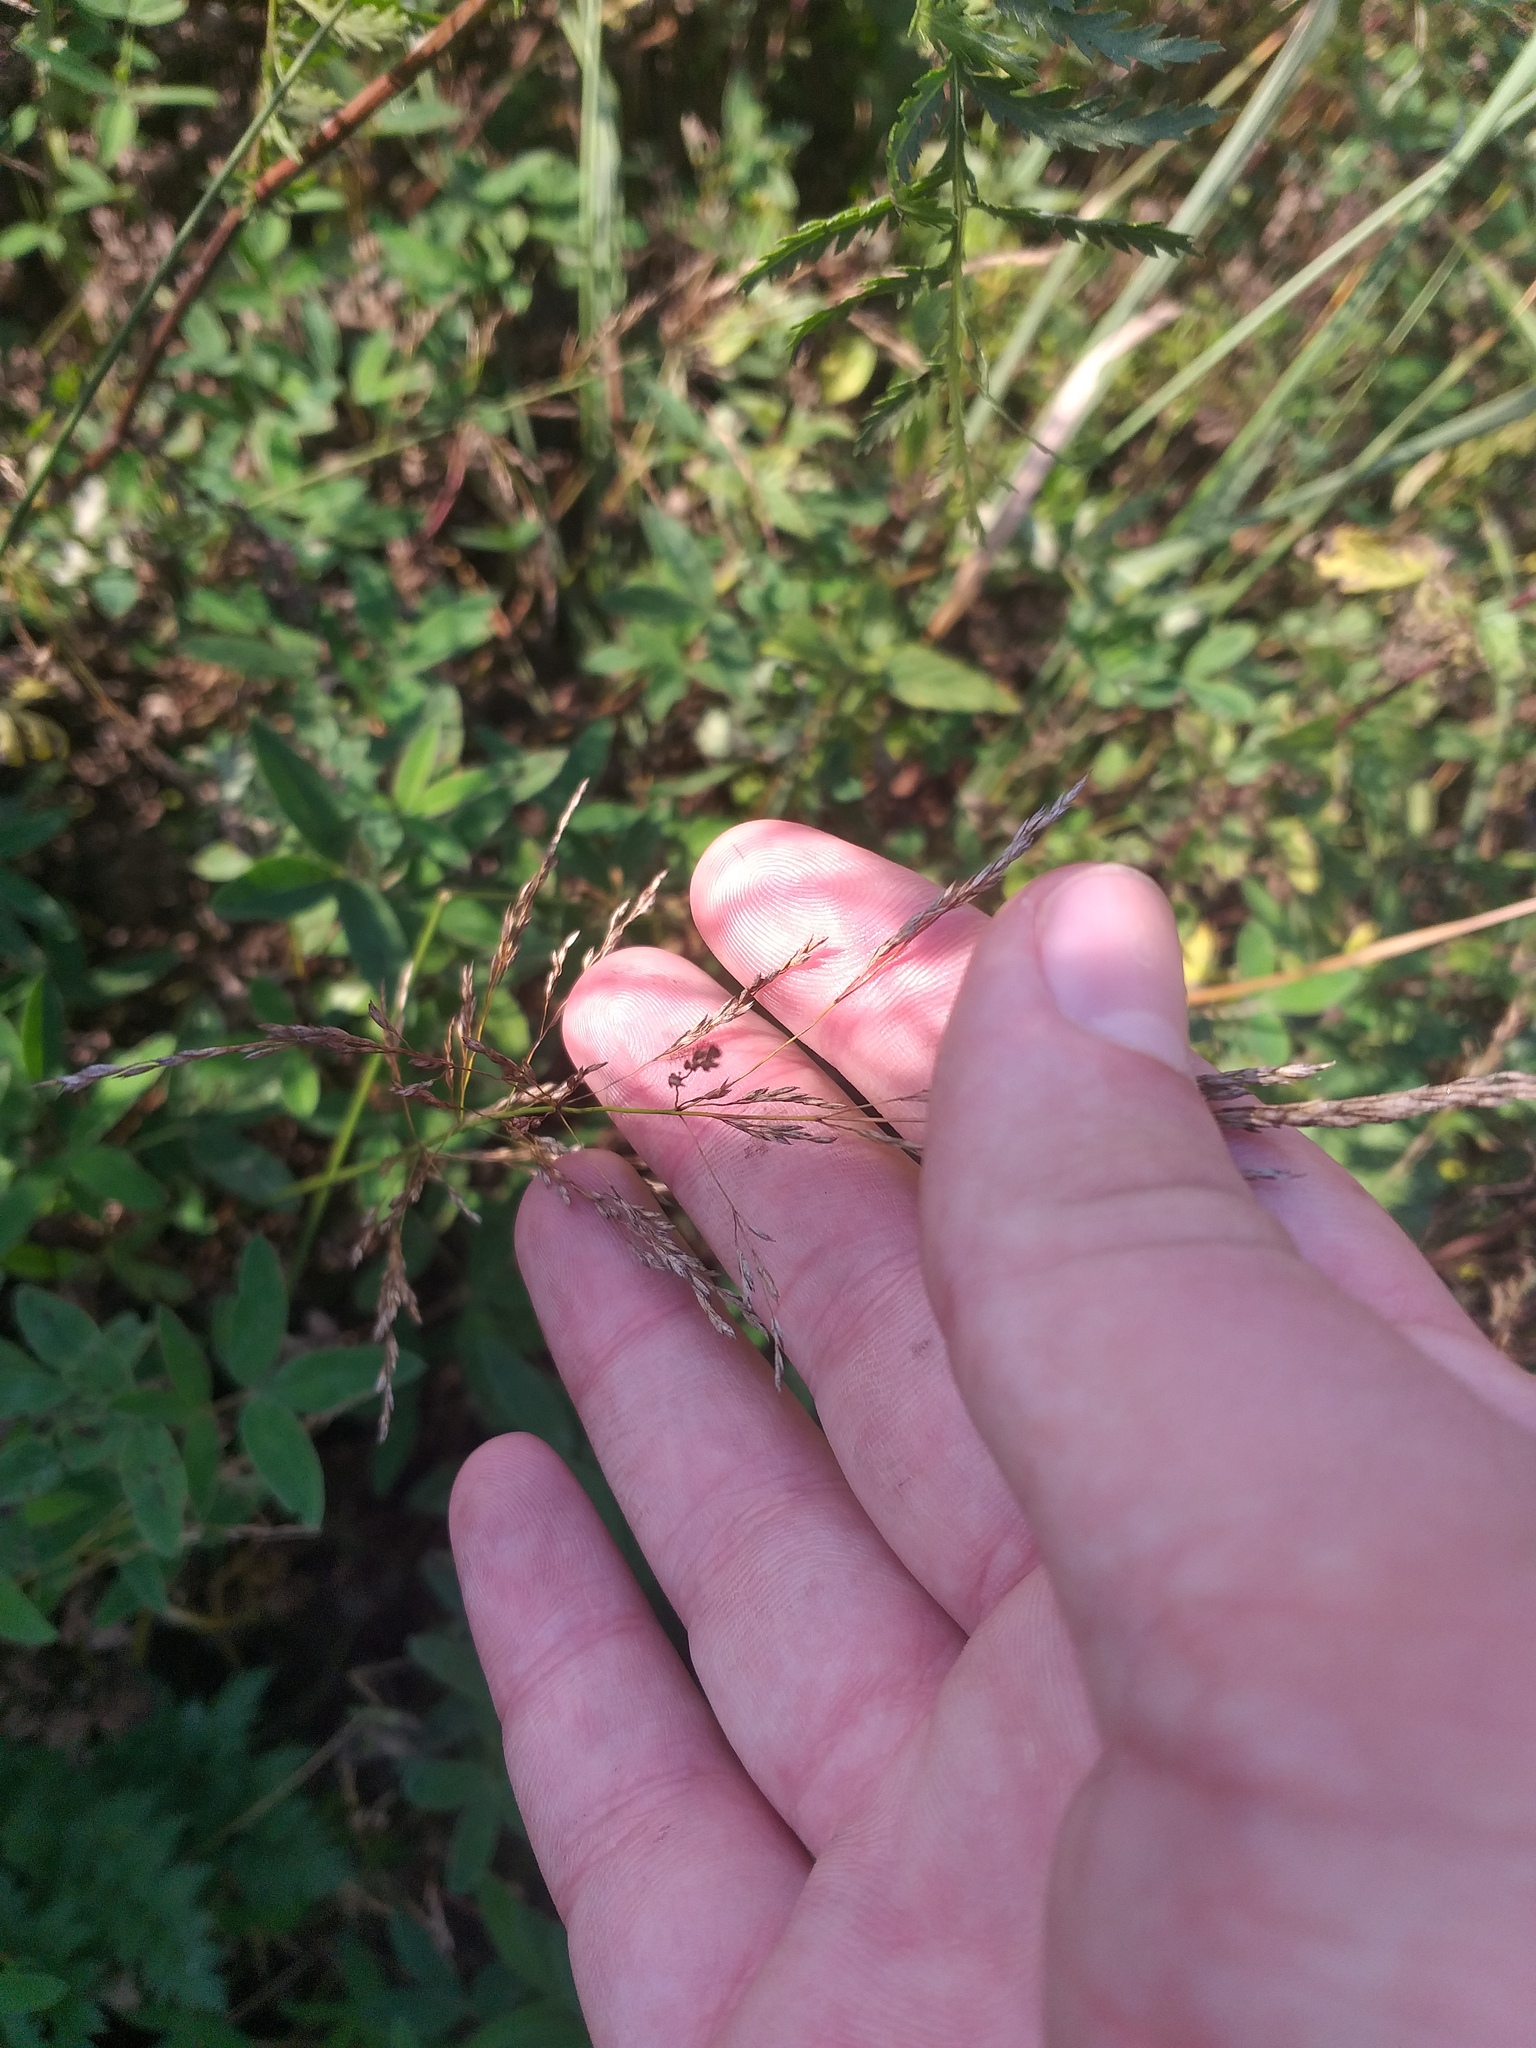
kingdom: Plantae
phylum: Tracheophyta
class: Liliopsida
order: Poales
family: Poaceae
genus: Poa
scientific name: Poa palustris
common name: Swamp meadow-grass
